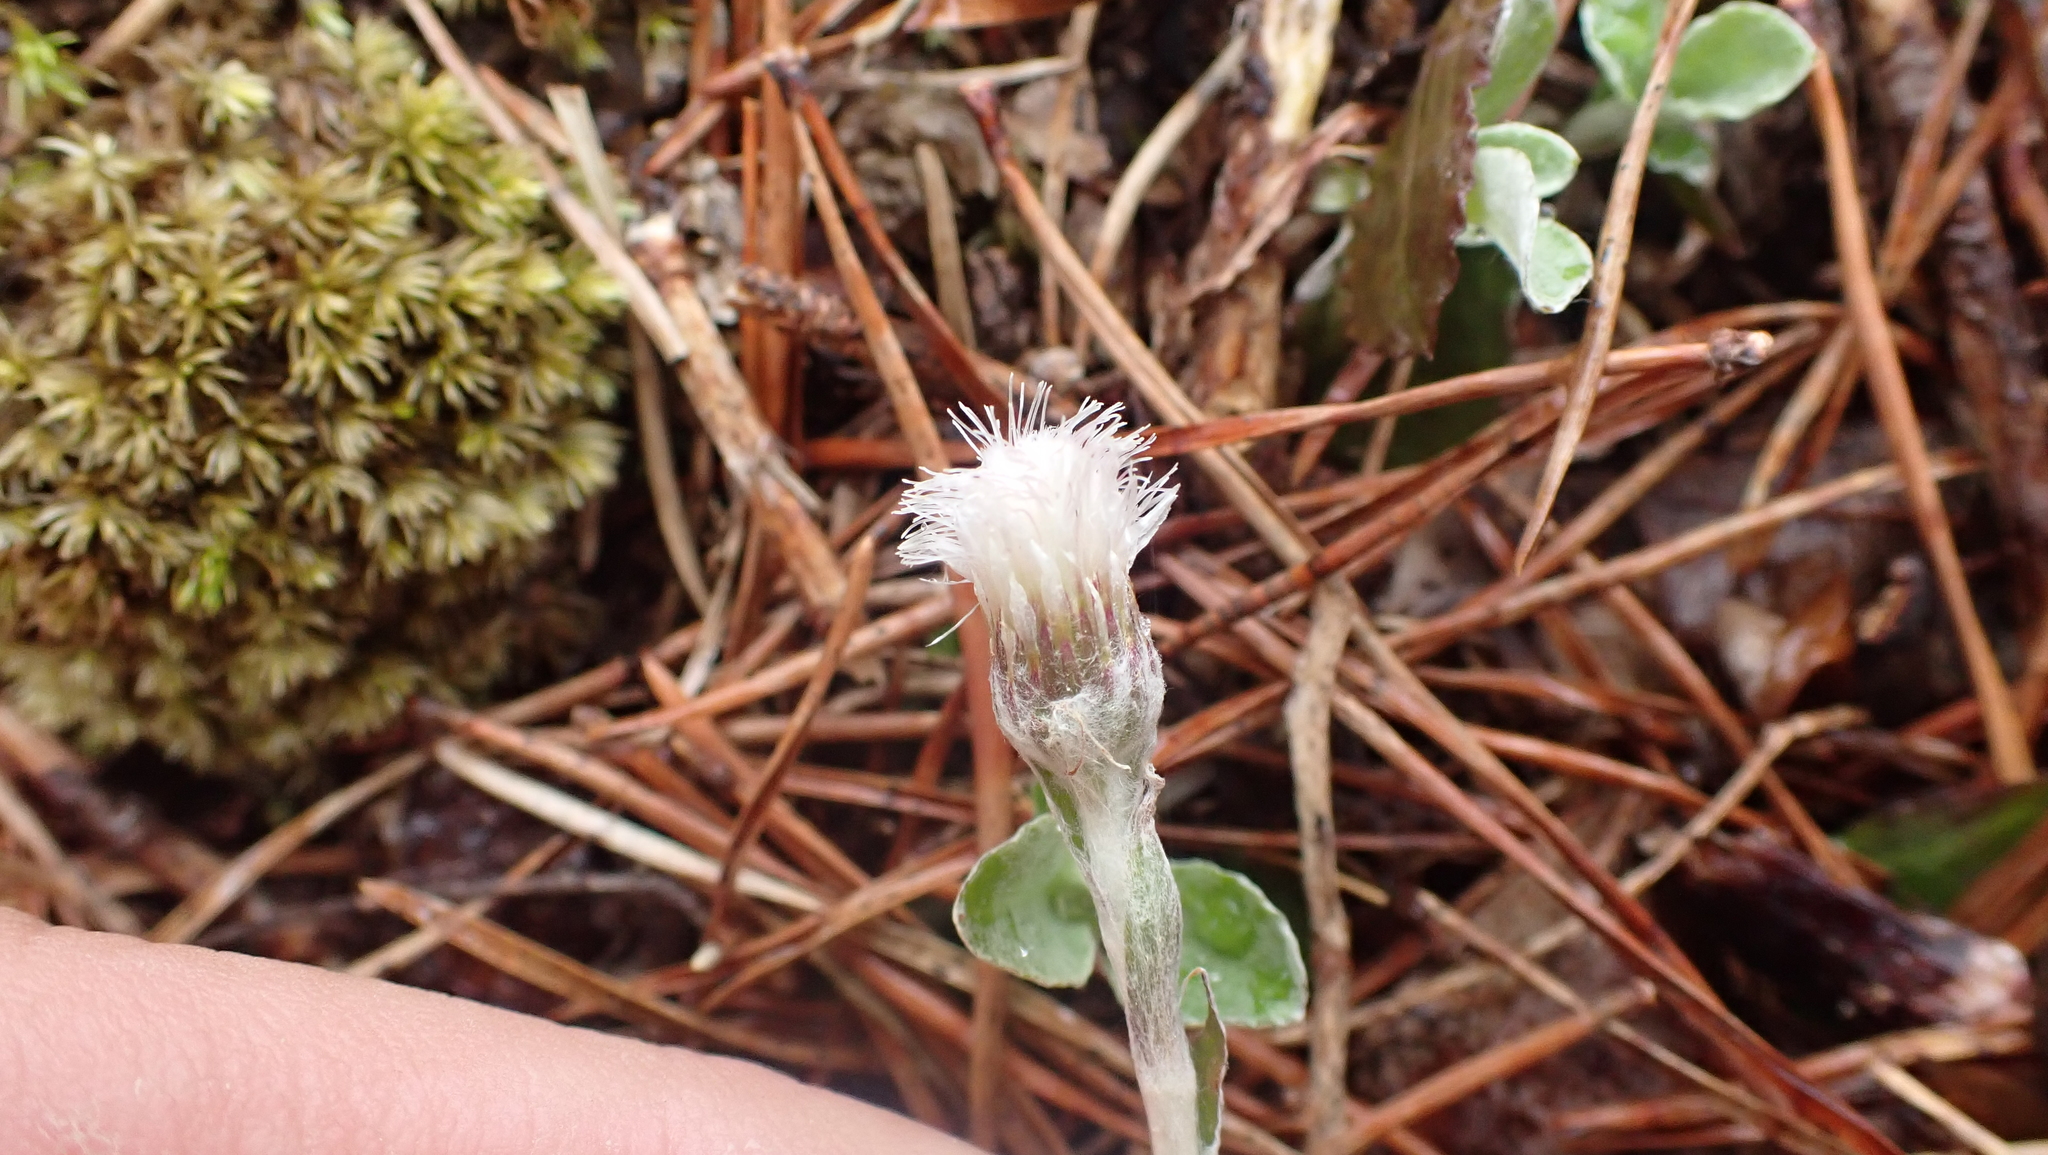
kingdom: Plantae
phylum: Tracheophyta
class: Magnoliopsida
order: Asterales
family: Asteraceae
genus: Antennaria
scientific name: Antennaria solitaria
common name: Single-head pussytoes
